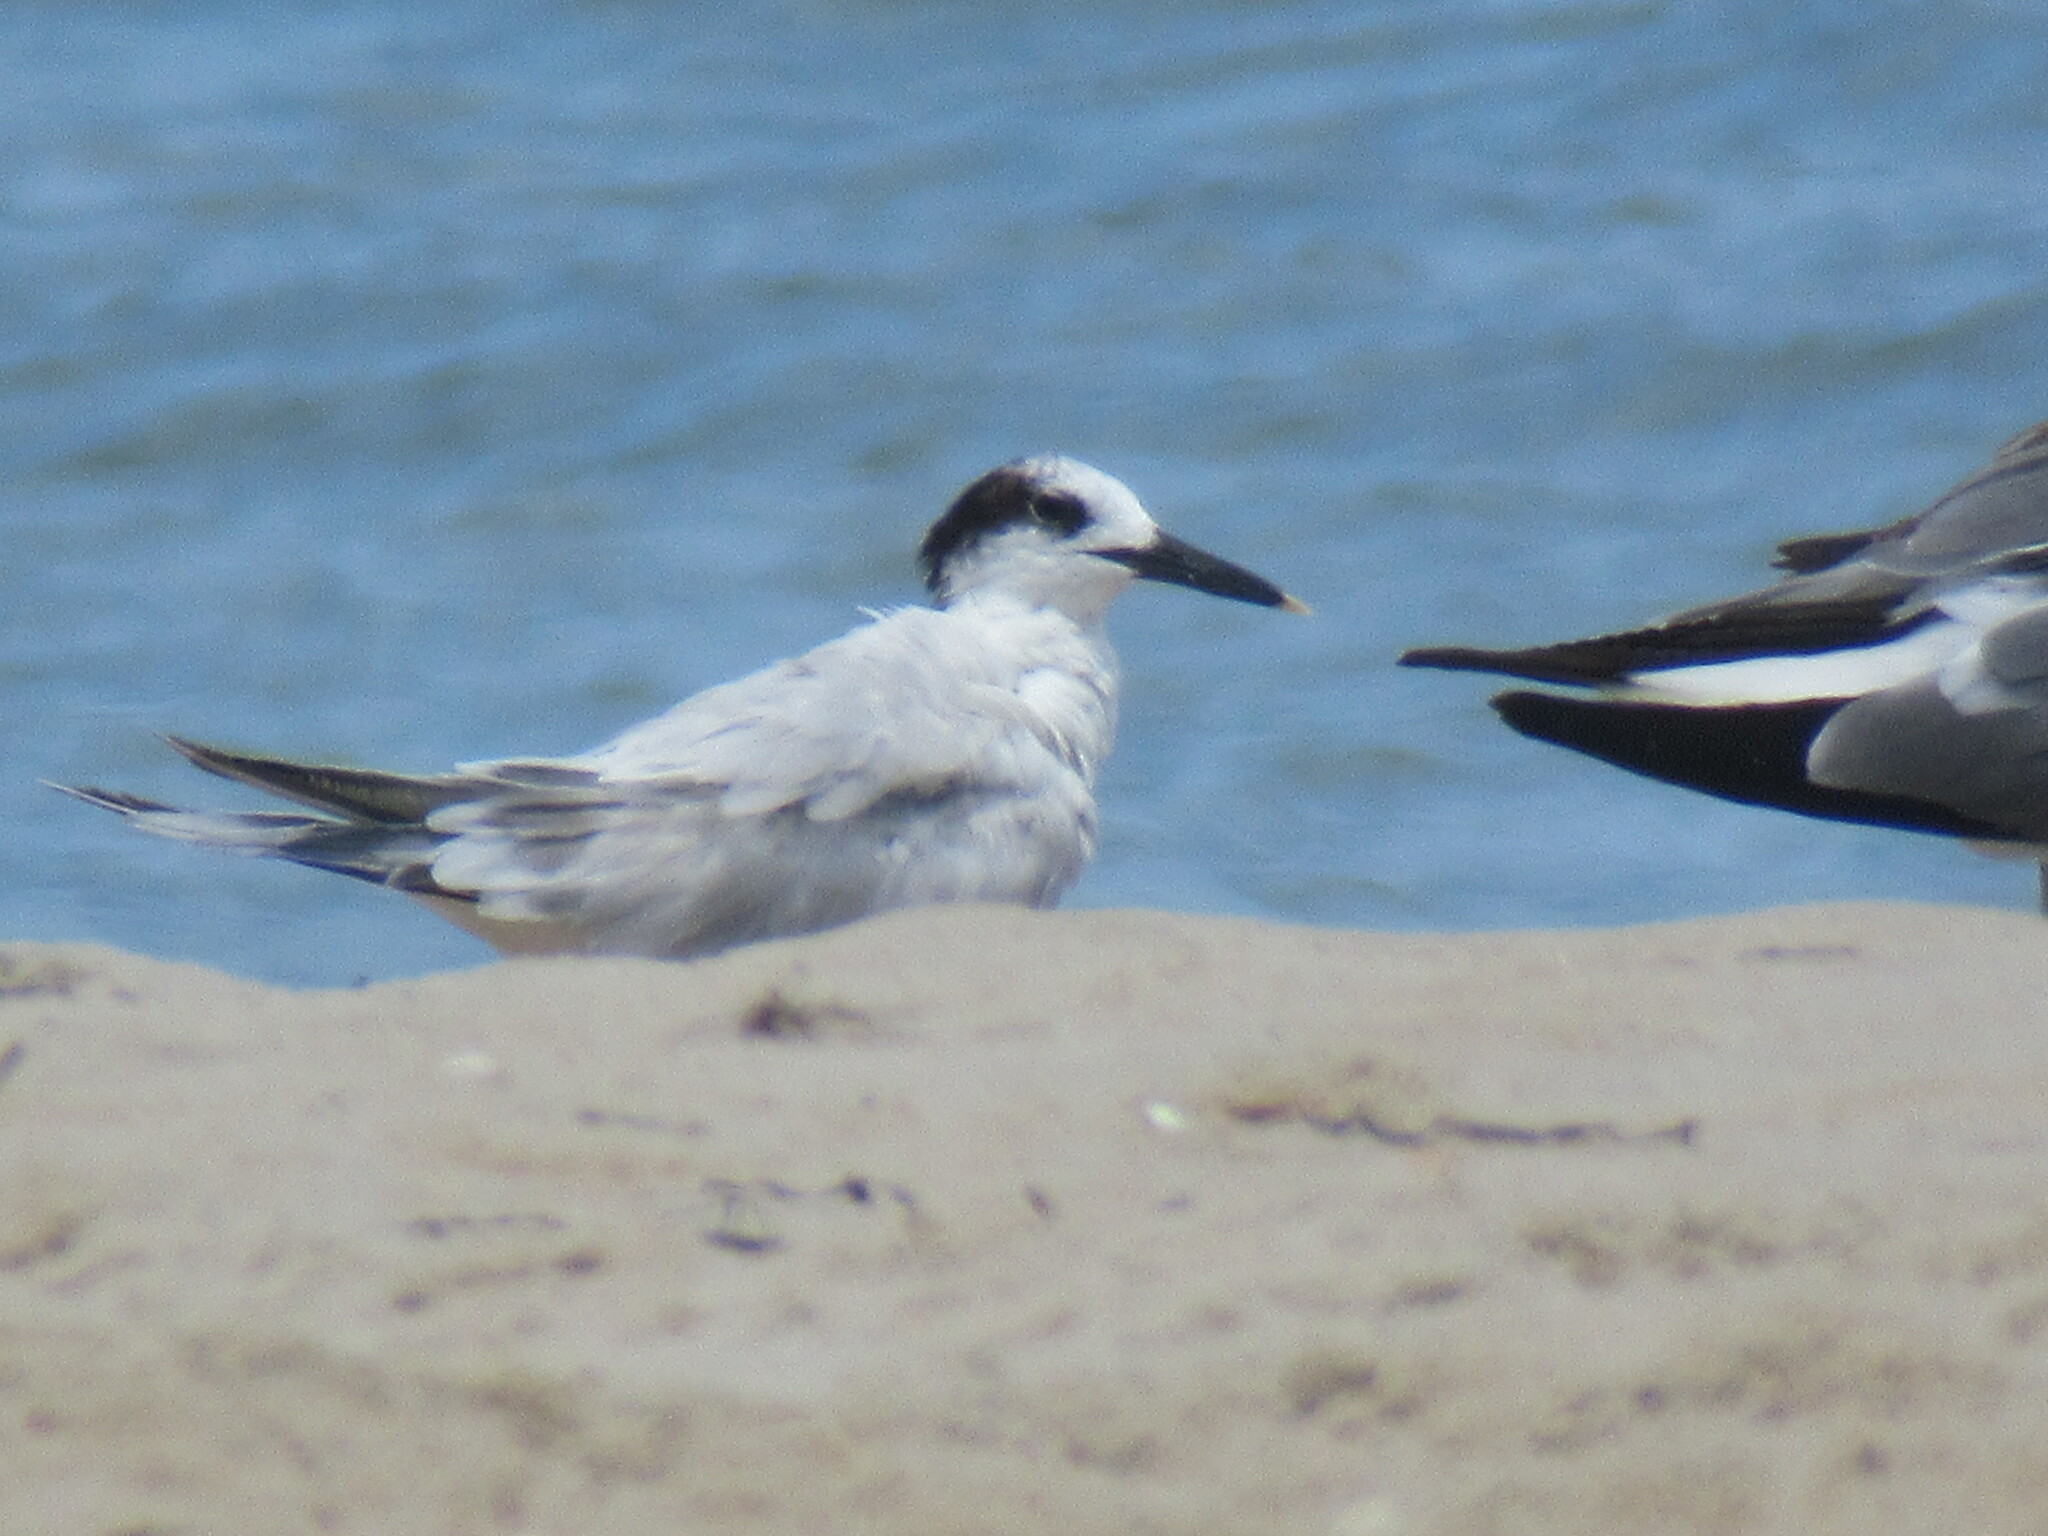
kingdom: Animalia
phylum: Chordata
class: Aves
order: Charadriiformes
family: Laridae
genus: Thalasseus
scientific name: Thalasseus sandvicensis
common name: Sandwich tern
